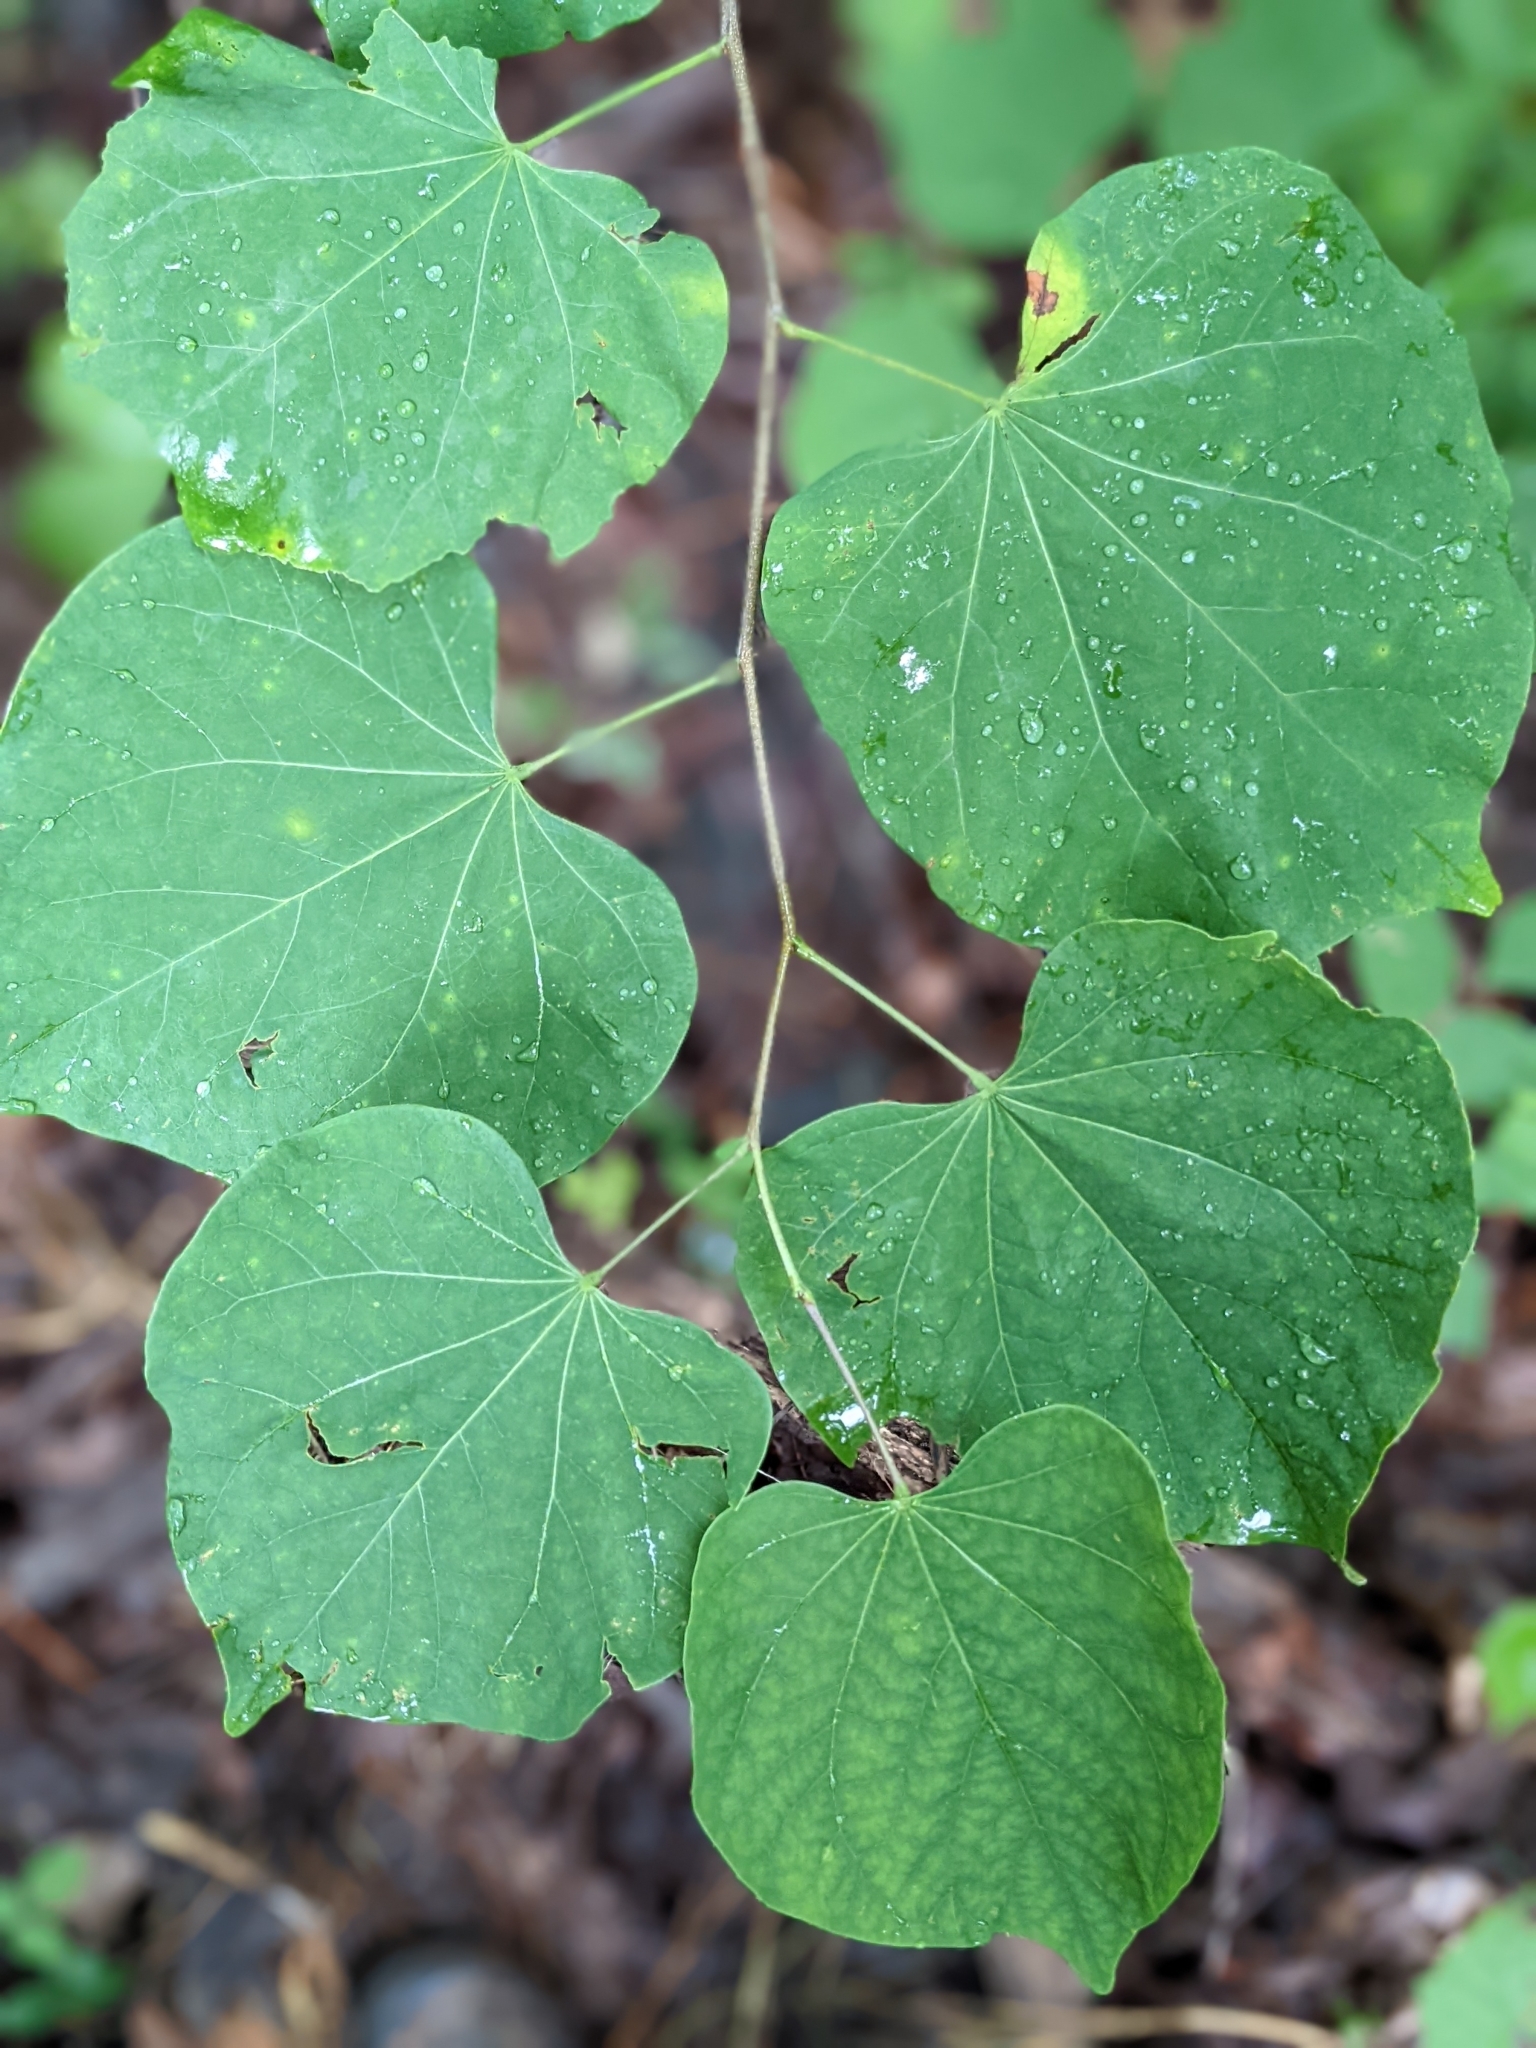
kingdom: Plantae
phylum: Tracheophyta
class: Magnoliopsida
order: Fabales
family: Fabaceae
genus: Cercis
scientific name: Cercis canadensis
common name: Eastern redbud
